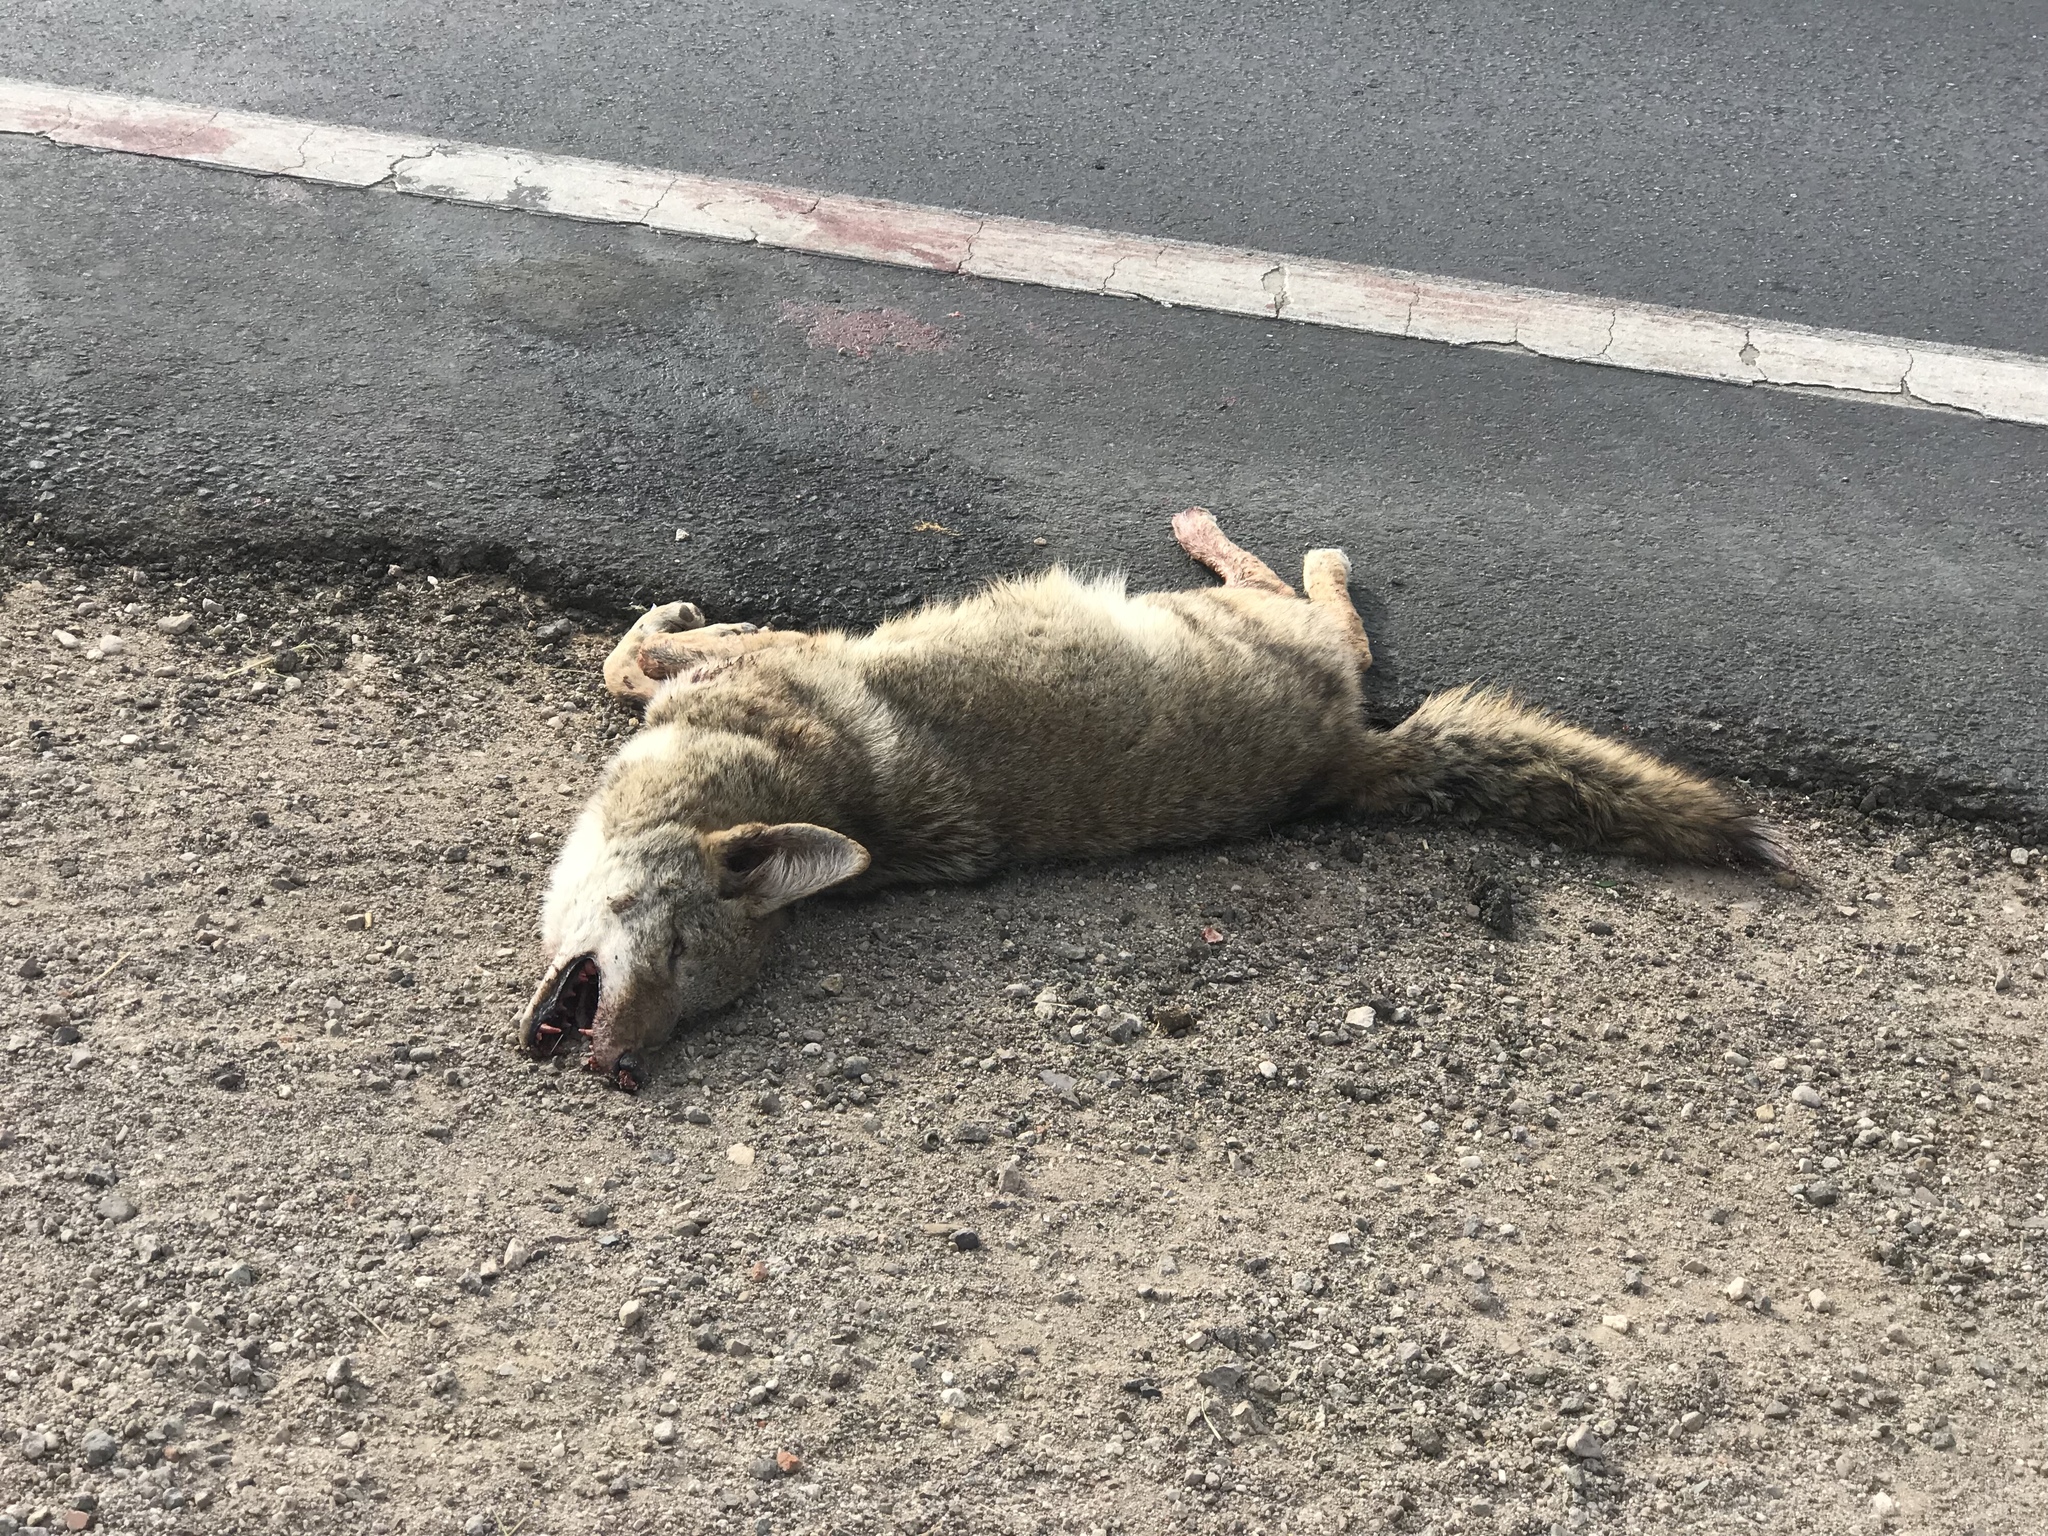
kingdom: Animalia
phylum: Chordata
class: Mammalia
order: Carnivora
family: Canidae
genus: Canis
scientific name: Canis latrans
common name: Coyote
